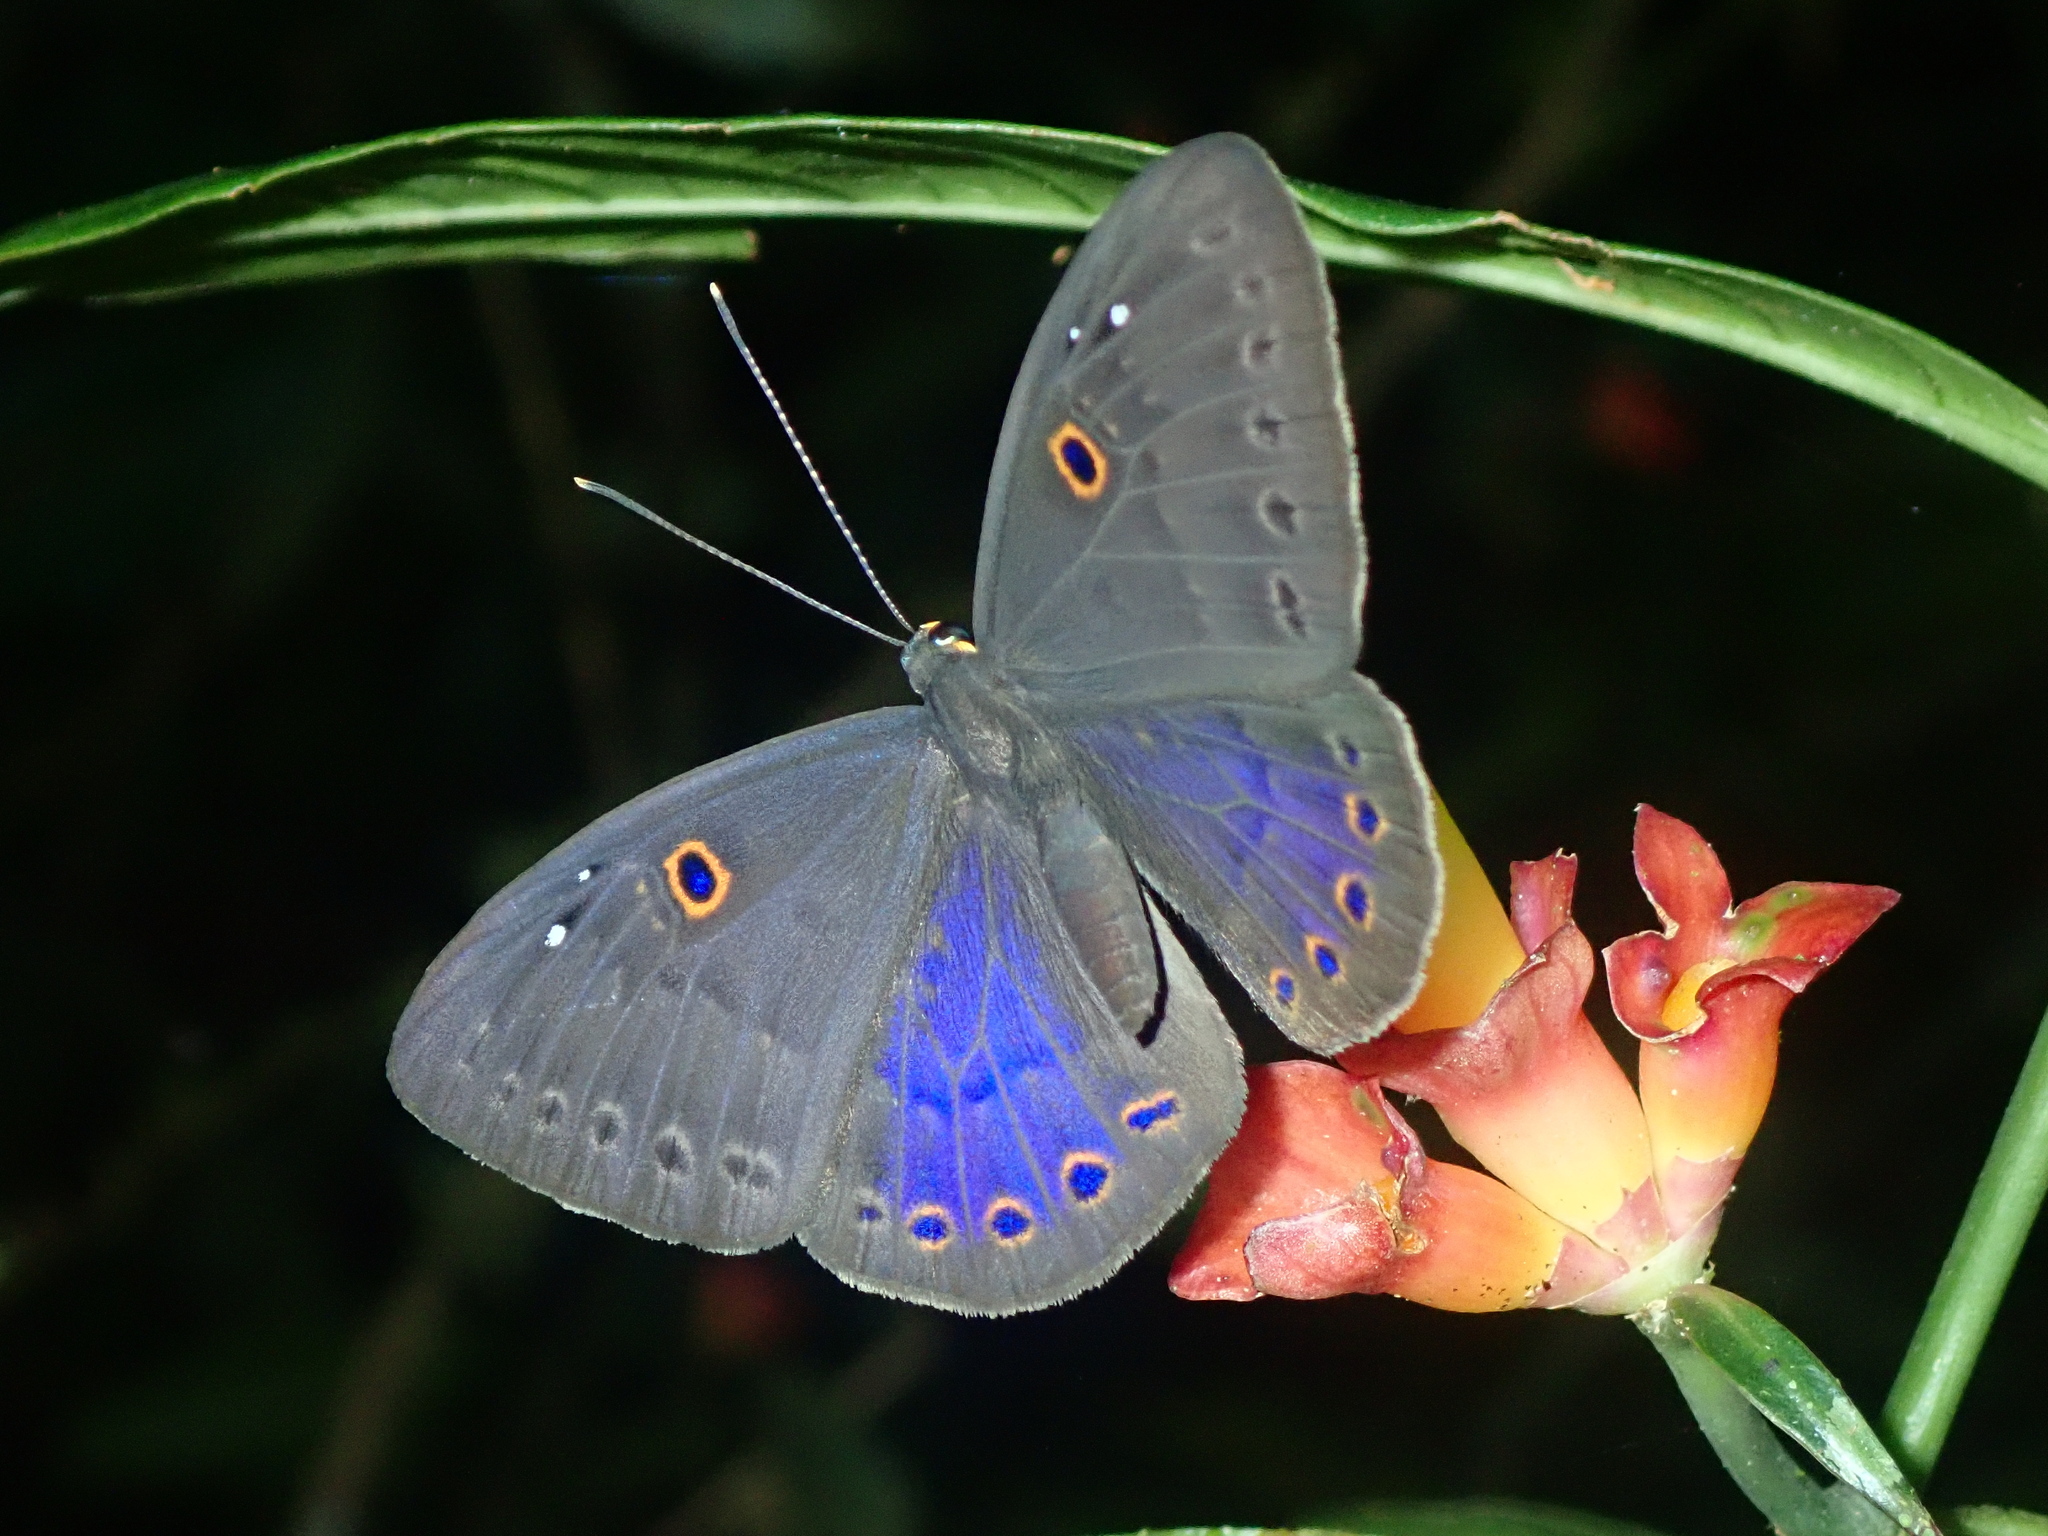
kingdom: Animalia
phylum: Cnidaria
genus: Eurybia
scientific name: Eurybia molochina
